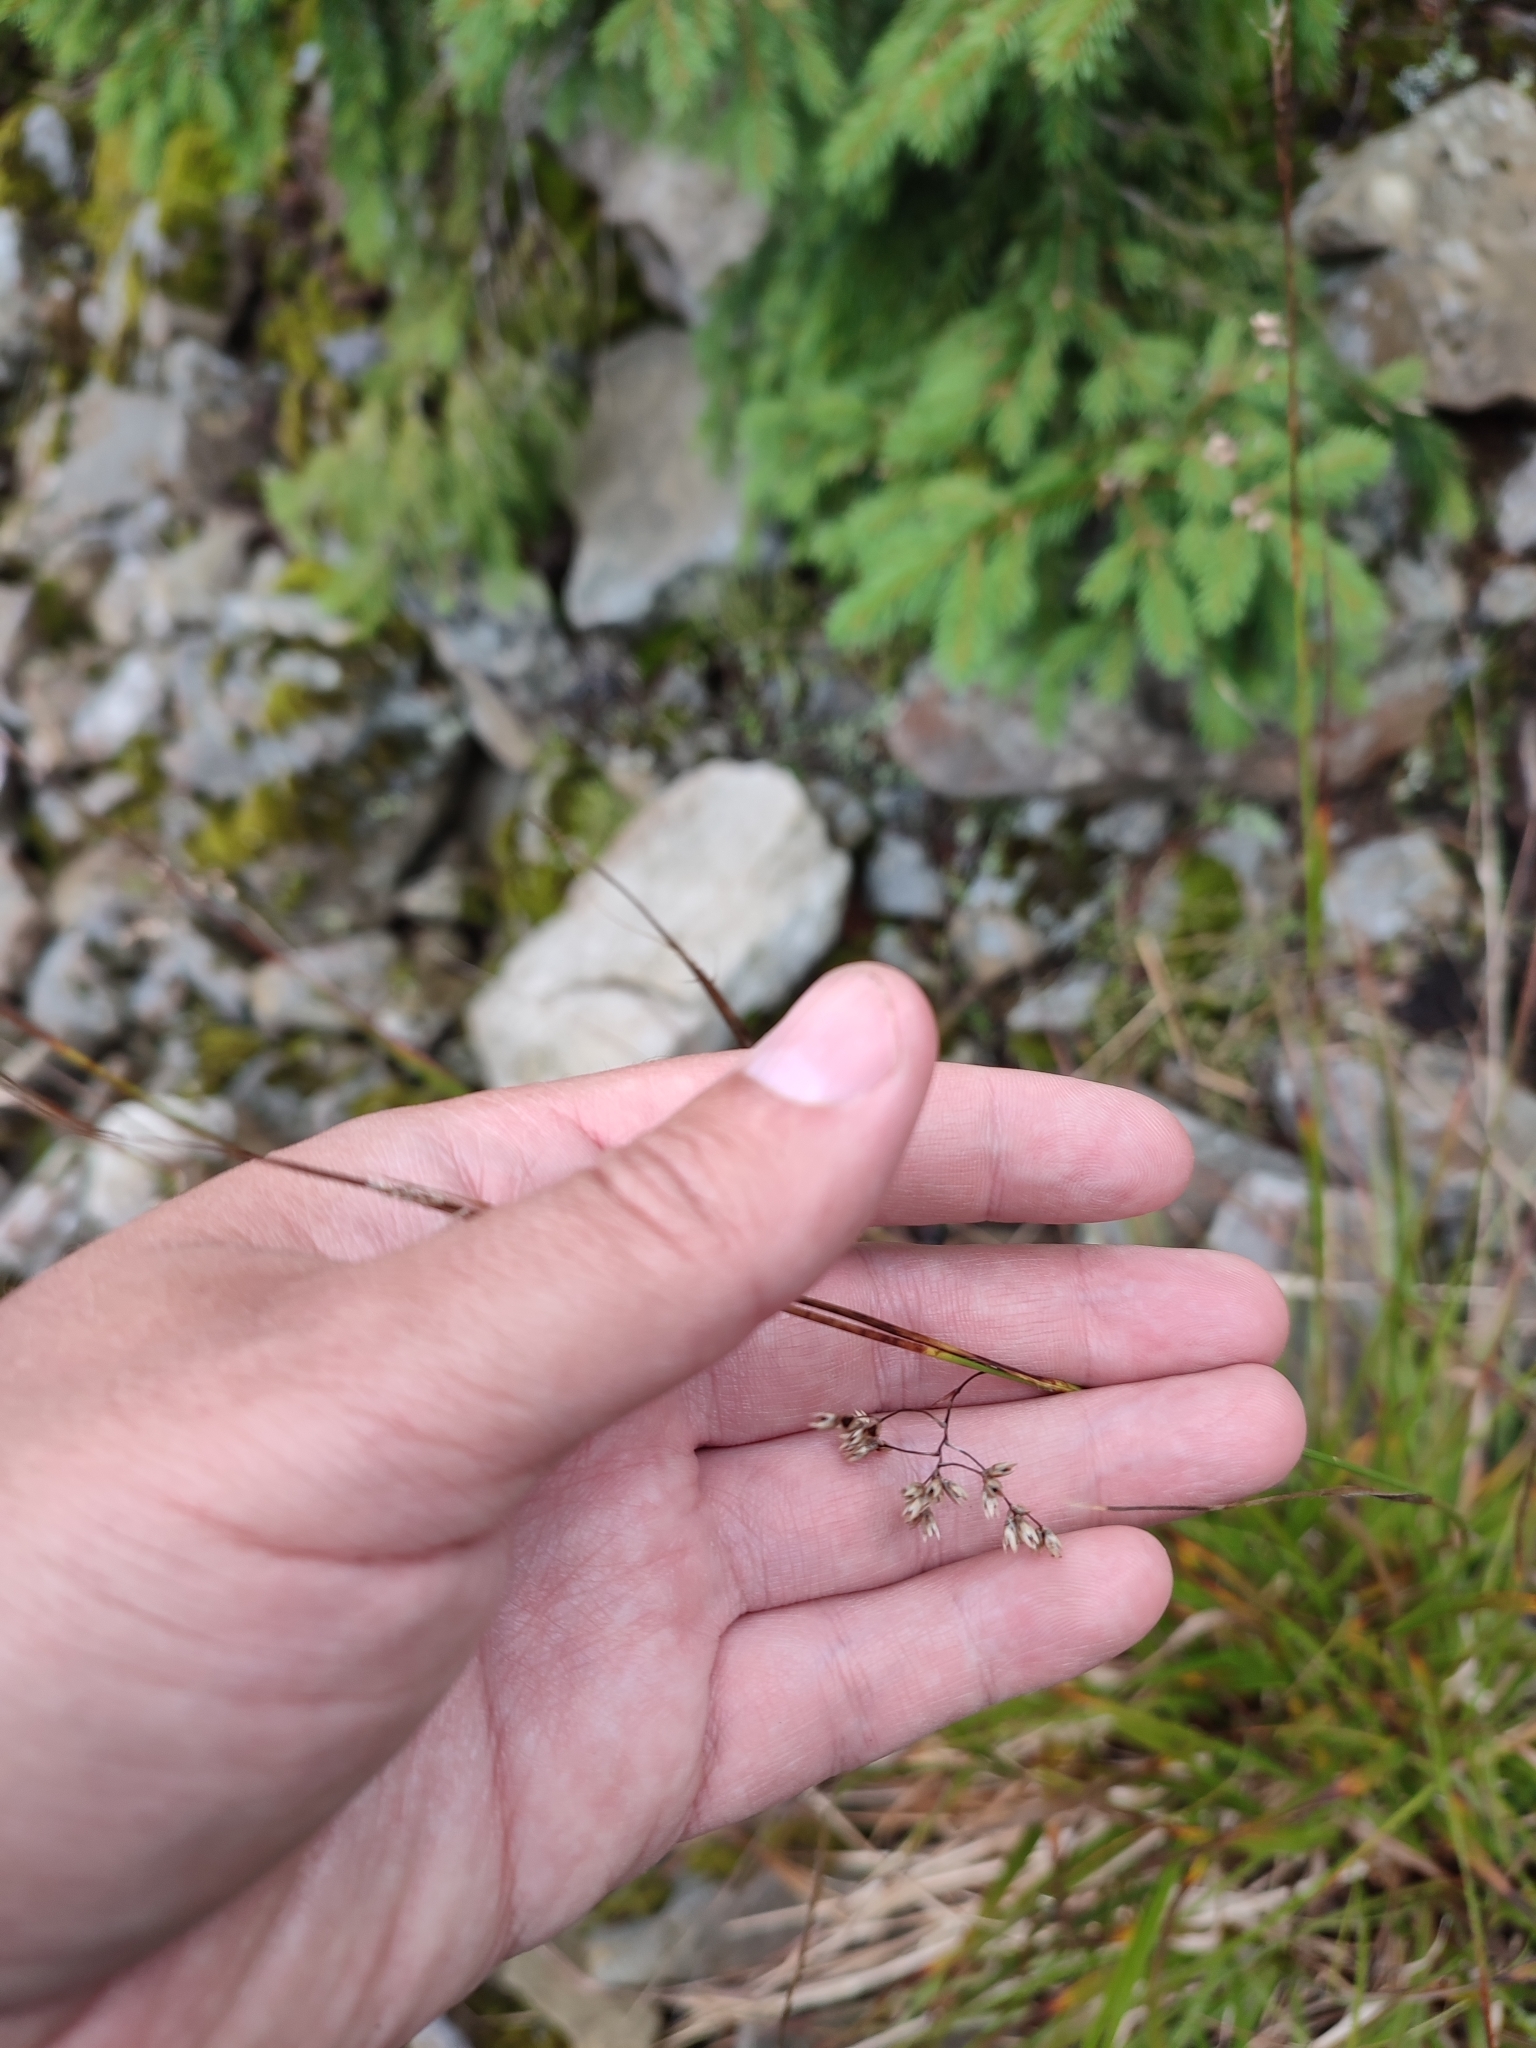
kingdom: Plantae
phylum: Tracheophyta
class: Liliopsida
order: Poales
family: Juncaceae
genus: Luzula
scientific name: Luzula luzuloides
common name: White wood-rush
